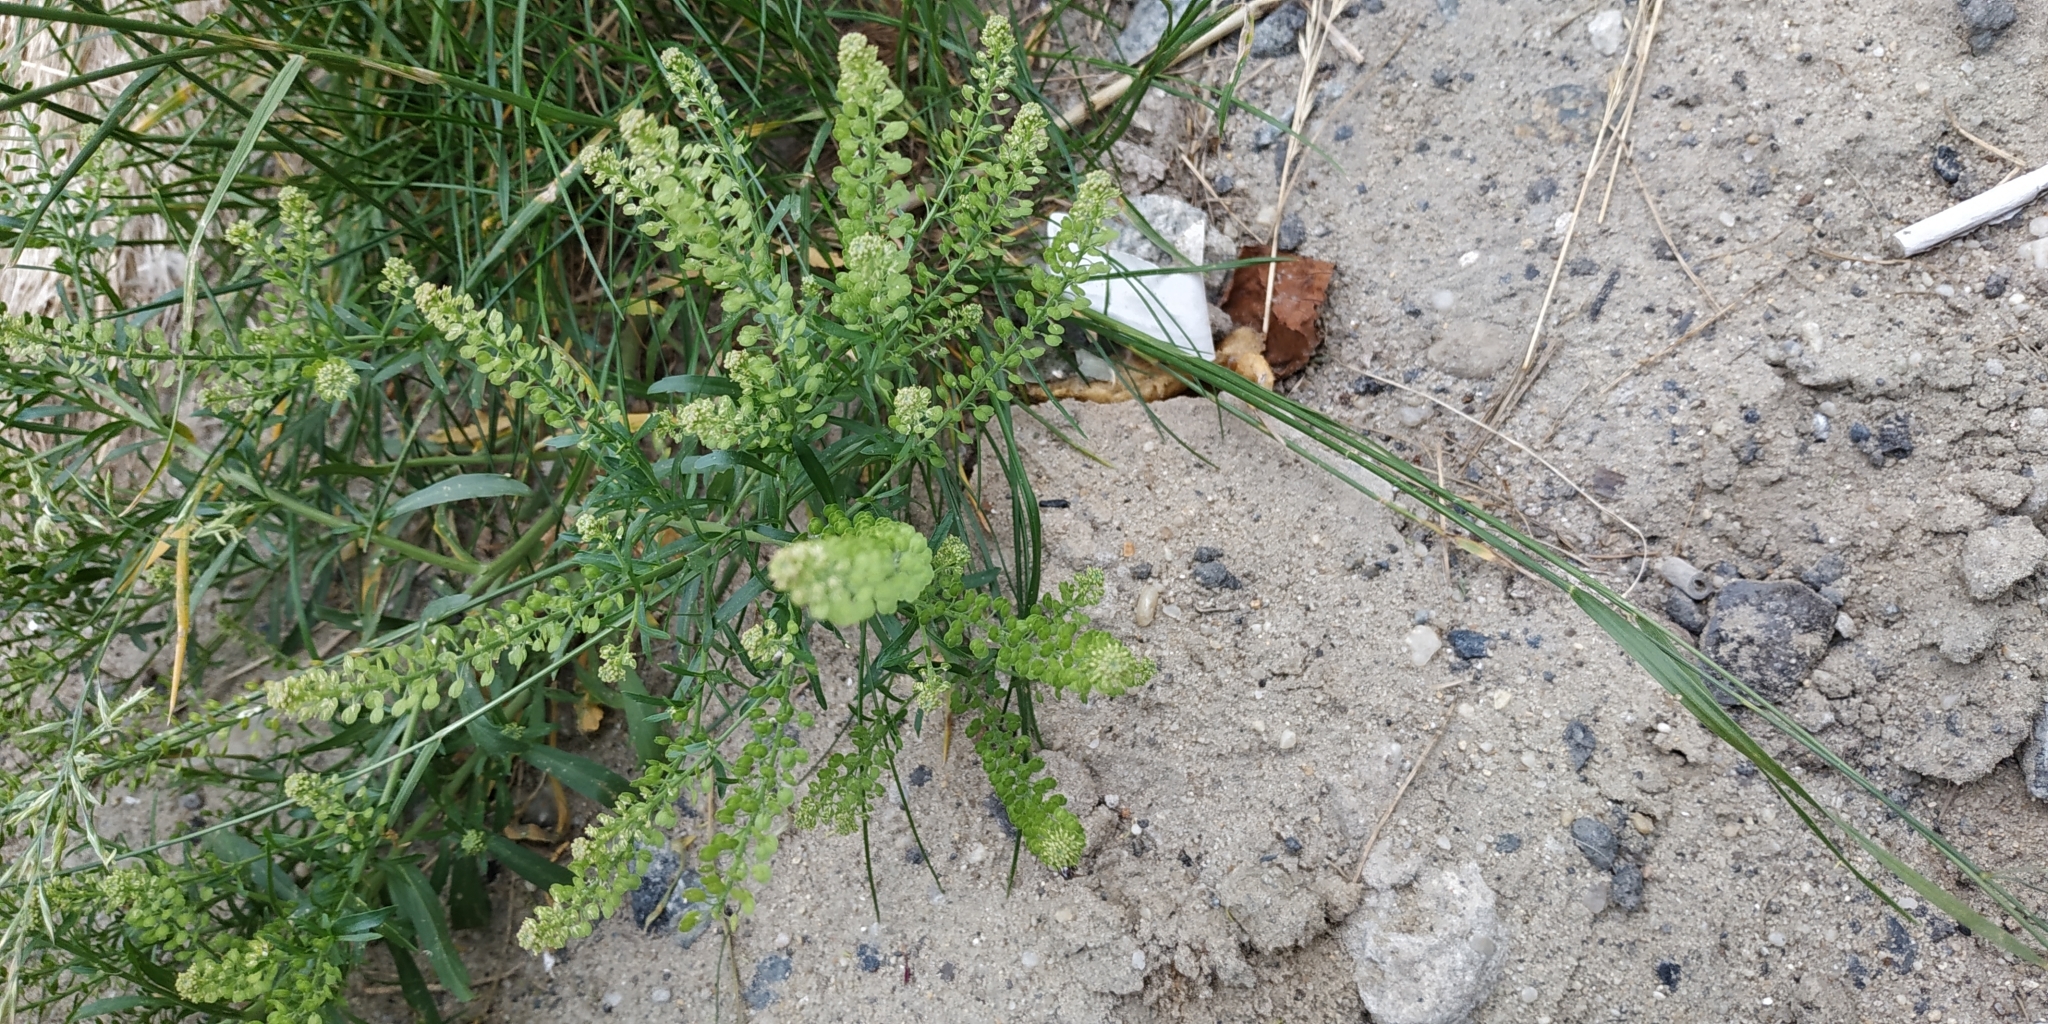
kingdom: Plantae
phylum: Tracheophyta
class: Magnoliopsida
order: Brassicales
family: Brassicaceae
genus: Lepidium
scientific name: Lepidium densiflorum
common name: Miner's pepperwort
